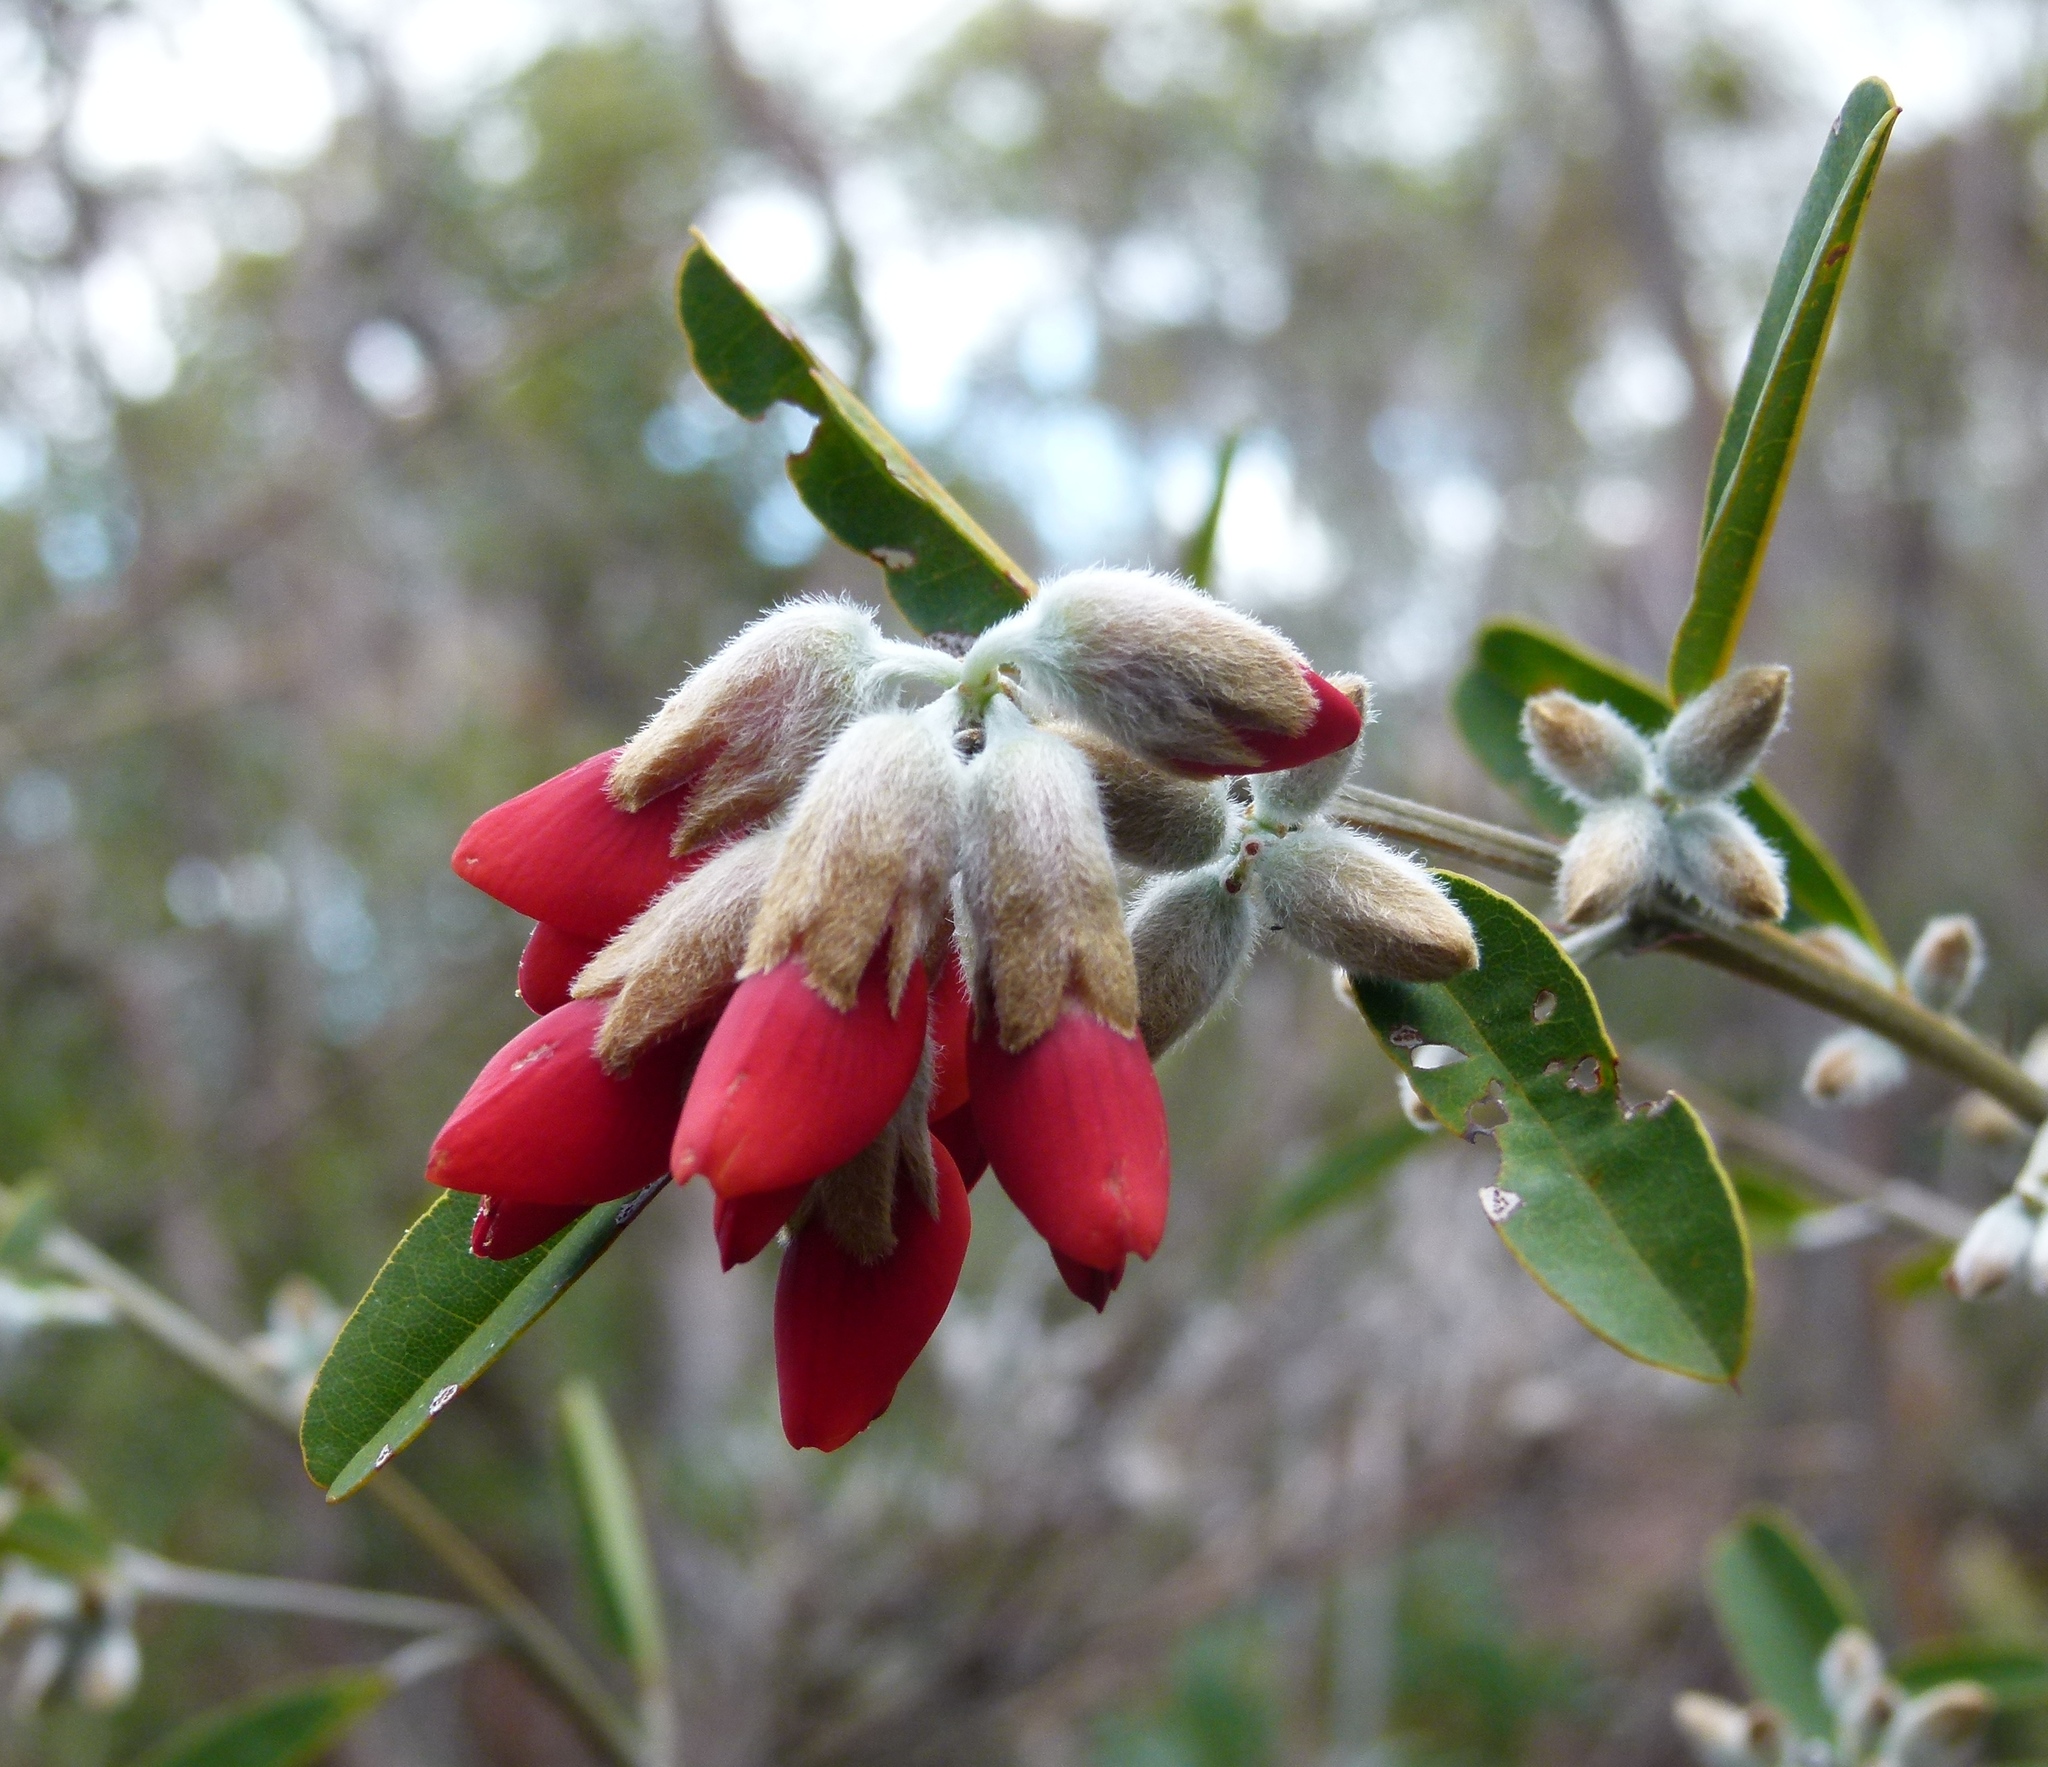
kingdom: Plantae
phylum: Tracheophyta
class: Magnoliopsida
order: Fabales
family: Fabaceae
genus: Gastrolobium
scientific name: Gastrolobium rubrum
